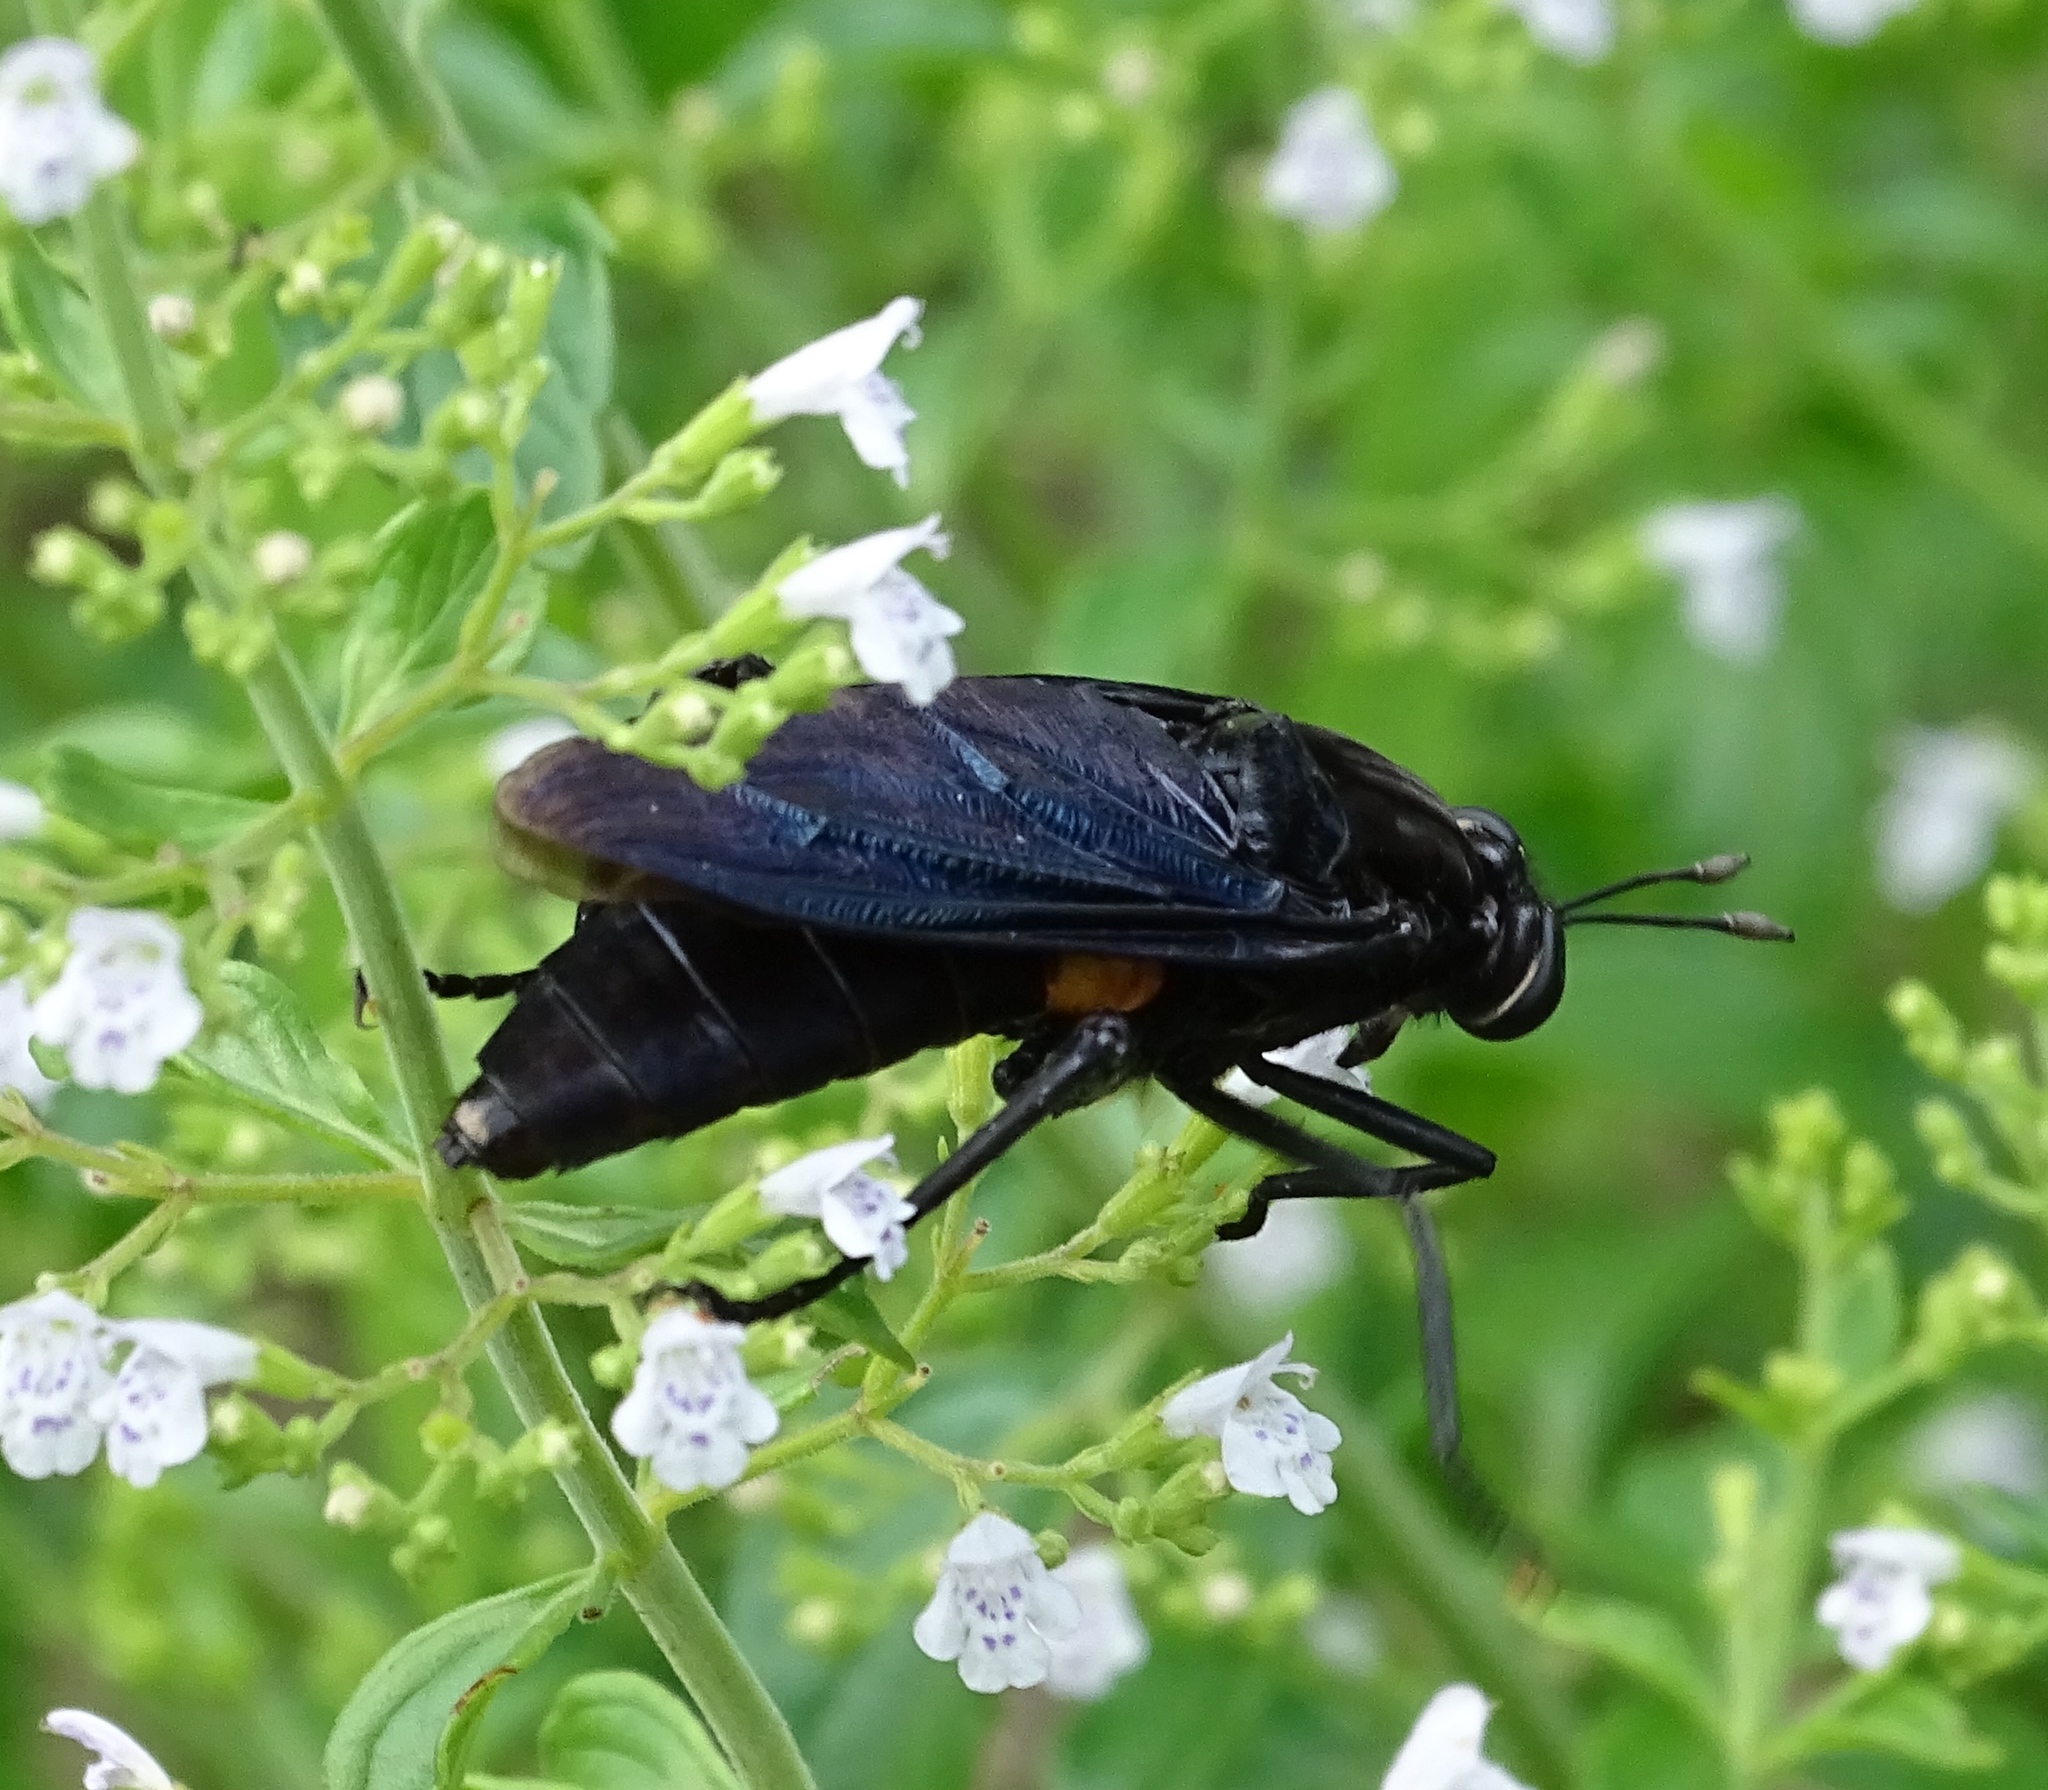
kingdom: Animalia
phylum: Arthropoda
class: Insecta
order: Diptera
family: Mydidae
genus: Mydas
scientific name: Mydas clavatus
